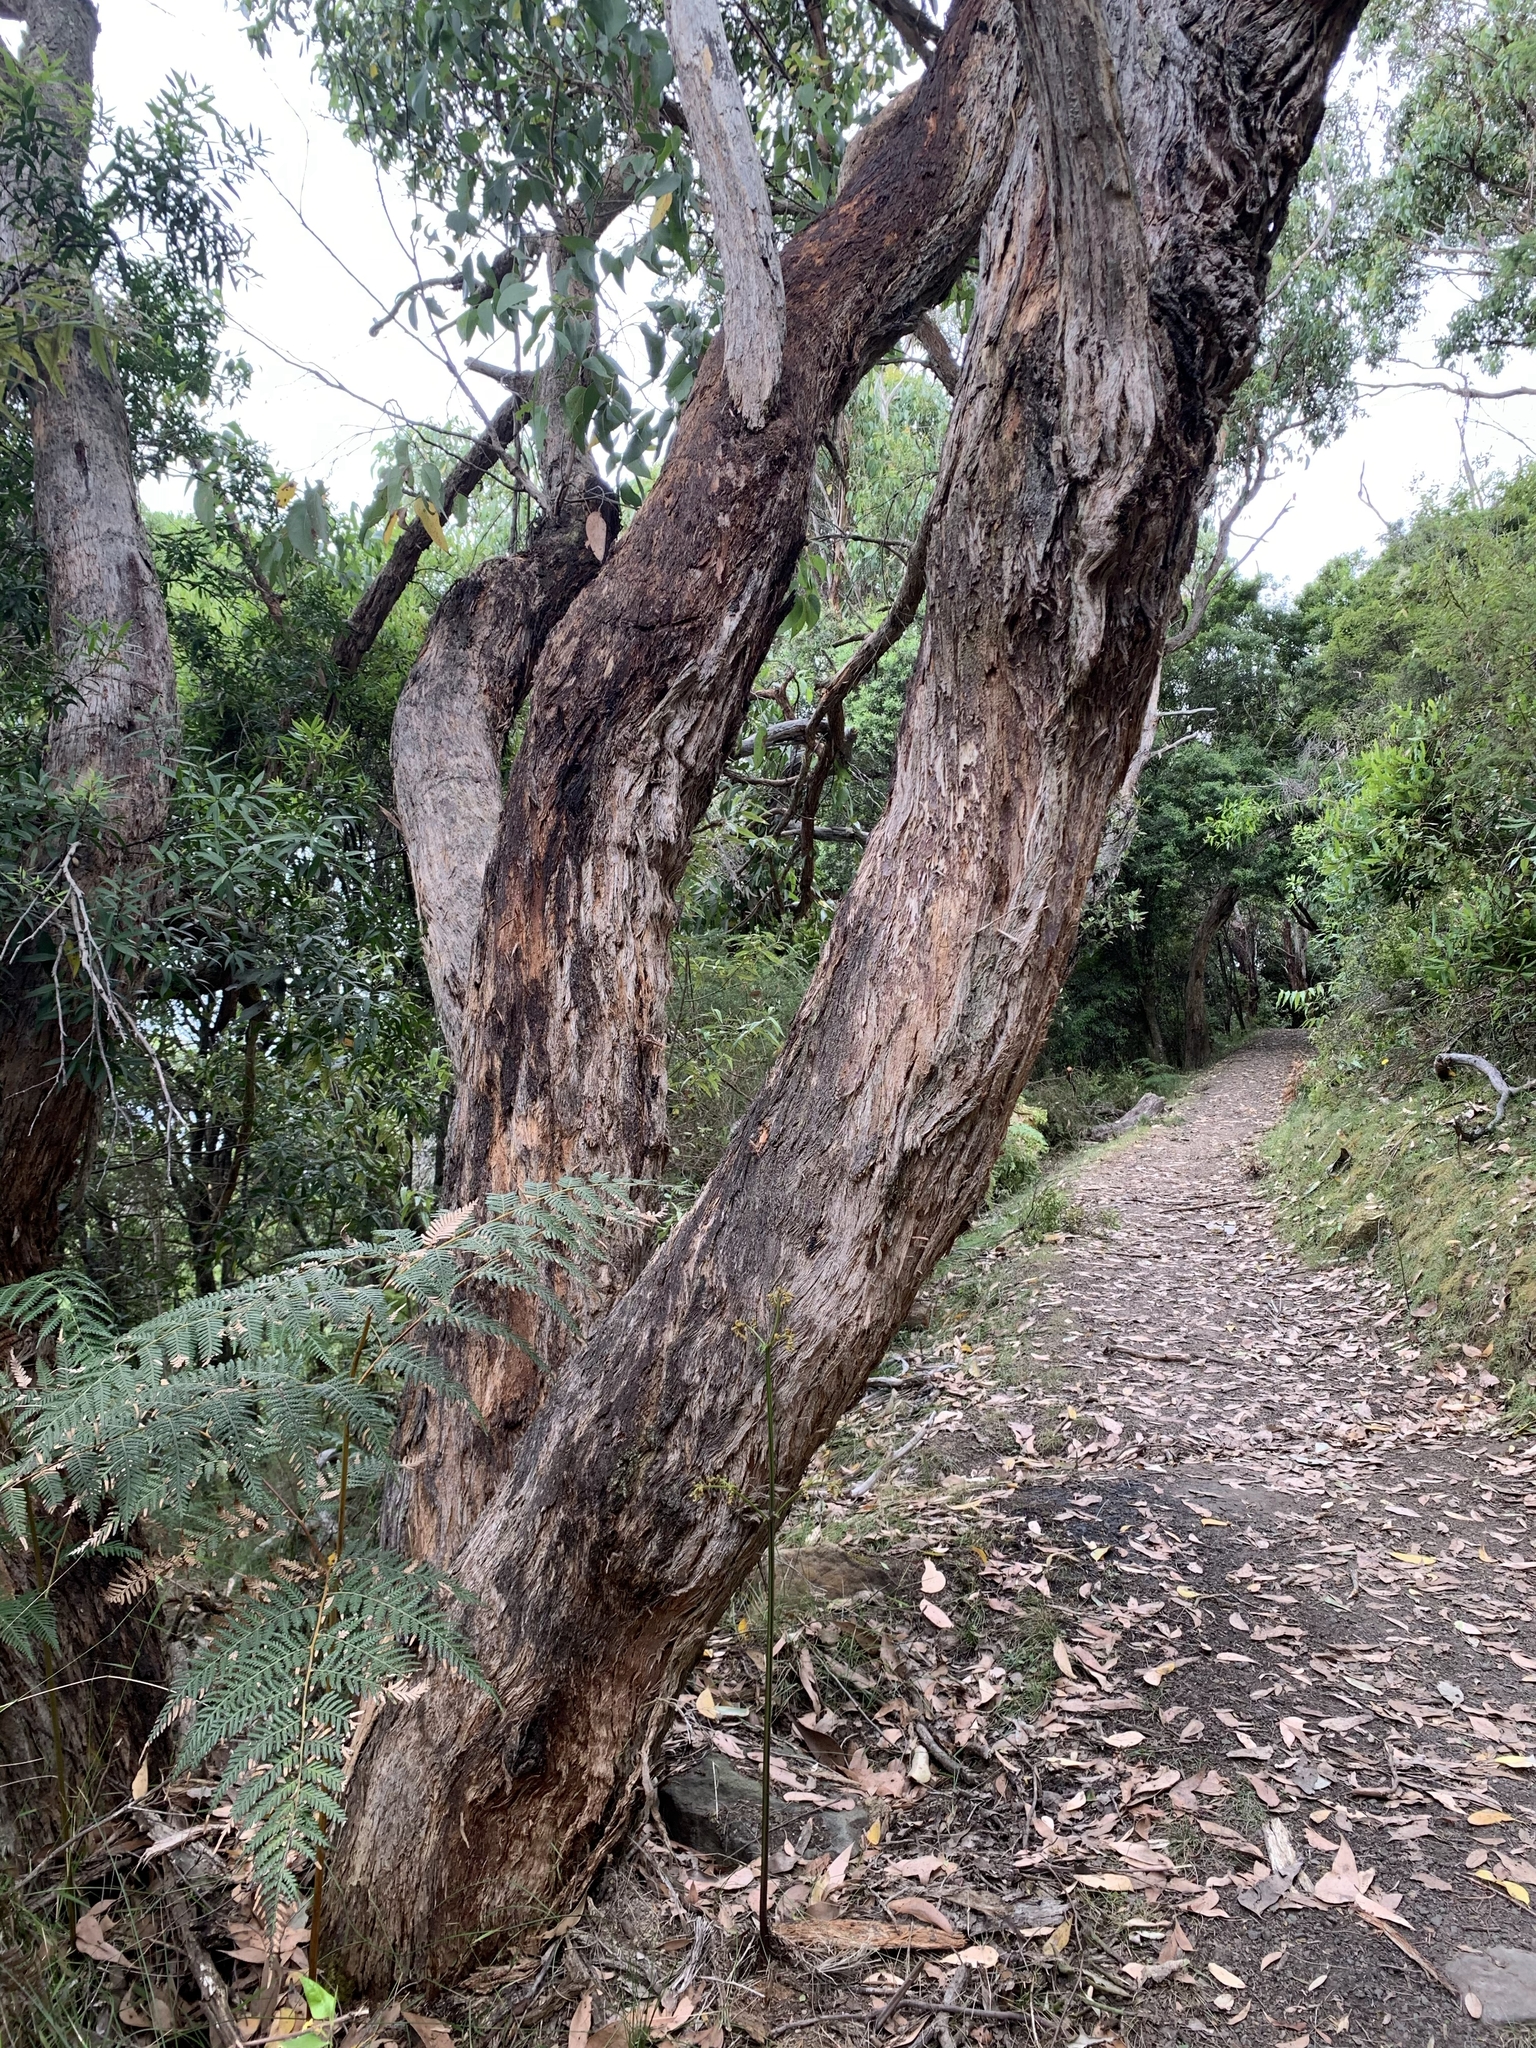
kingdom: Plantae
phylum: Tracheophyta
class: Magnoliopsida
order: Myrtales
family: Myrtaceae
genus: Eucalyptus
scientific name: Eucalyptus obliqua
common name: Messmate stringybark
